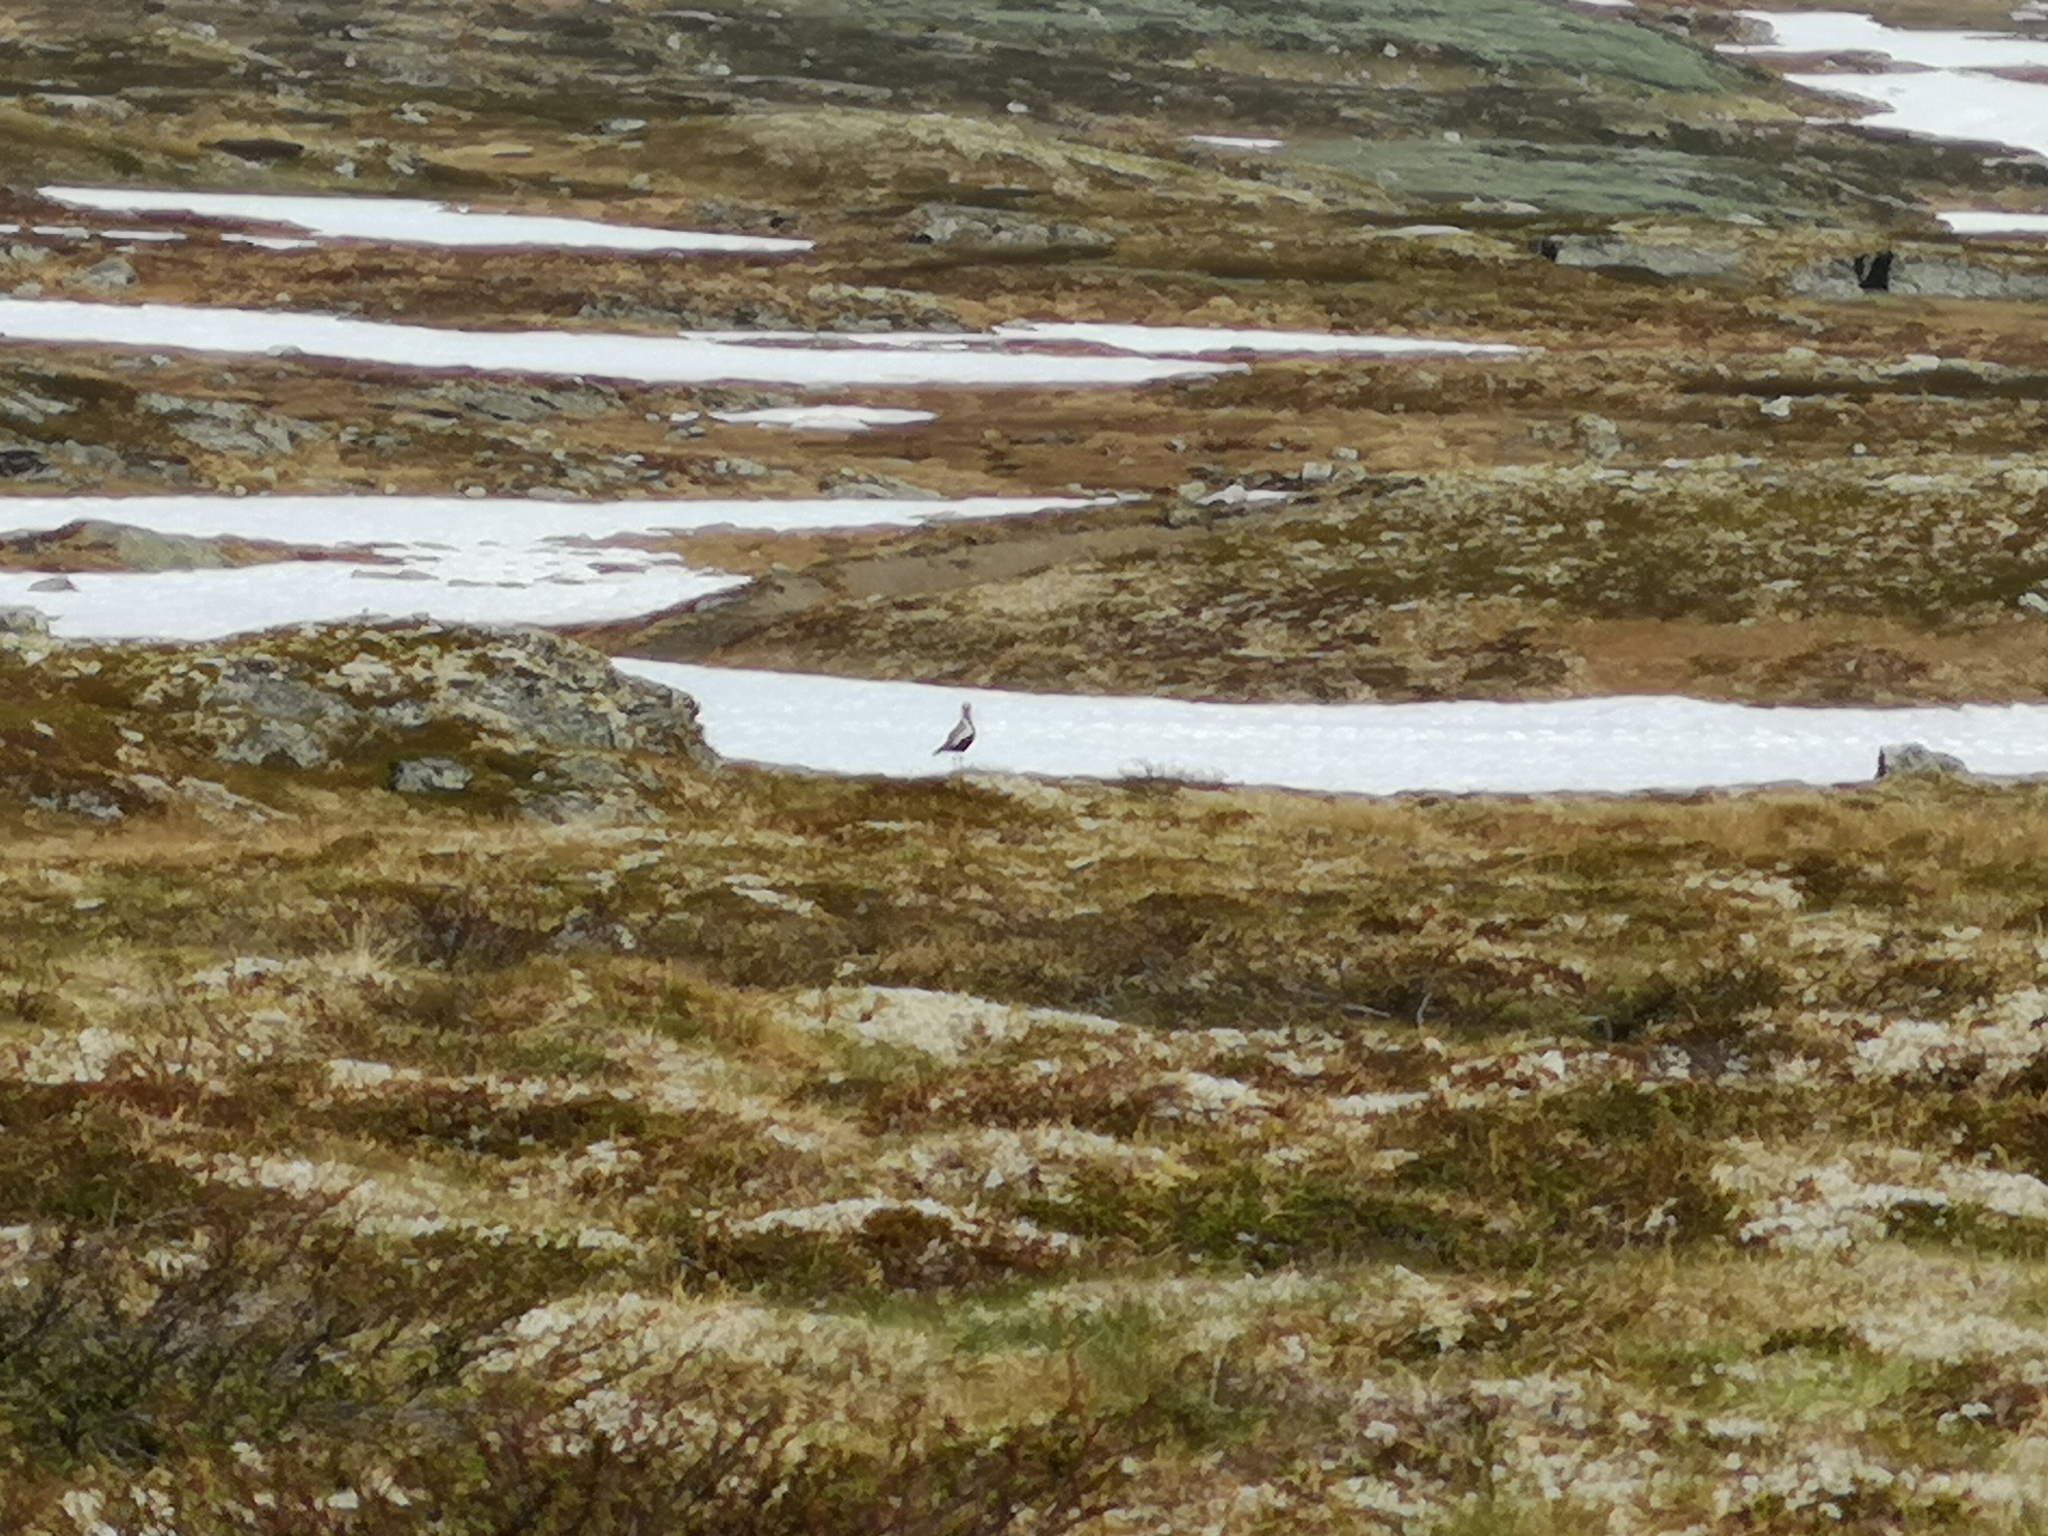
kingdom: Animalia
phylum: Chordata
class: Aves
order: Charadriiformes
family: Charadriidae
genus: Pluvialis
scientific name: Pluvialis apricaria
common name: European golden plover
